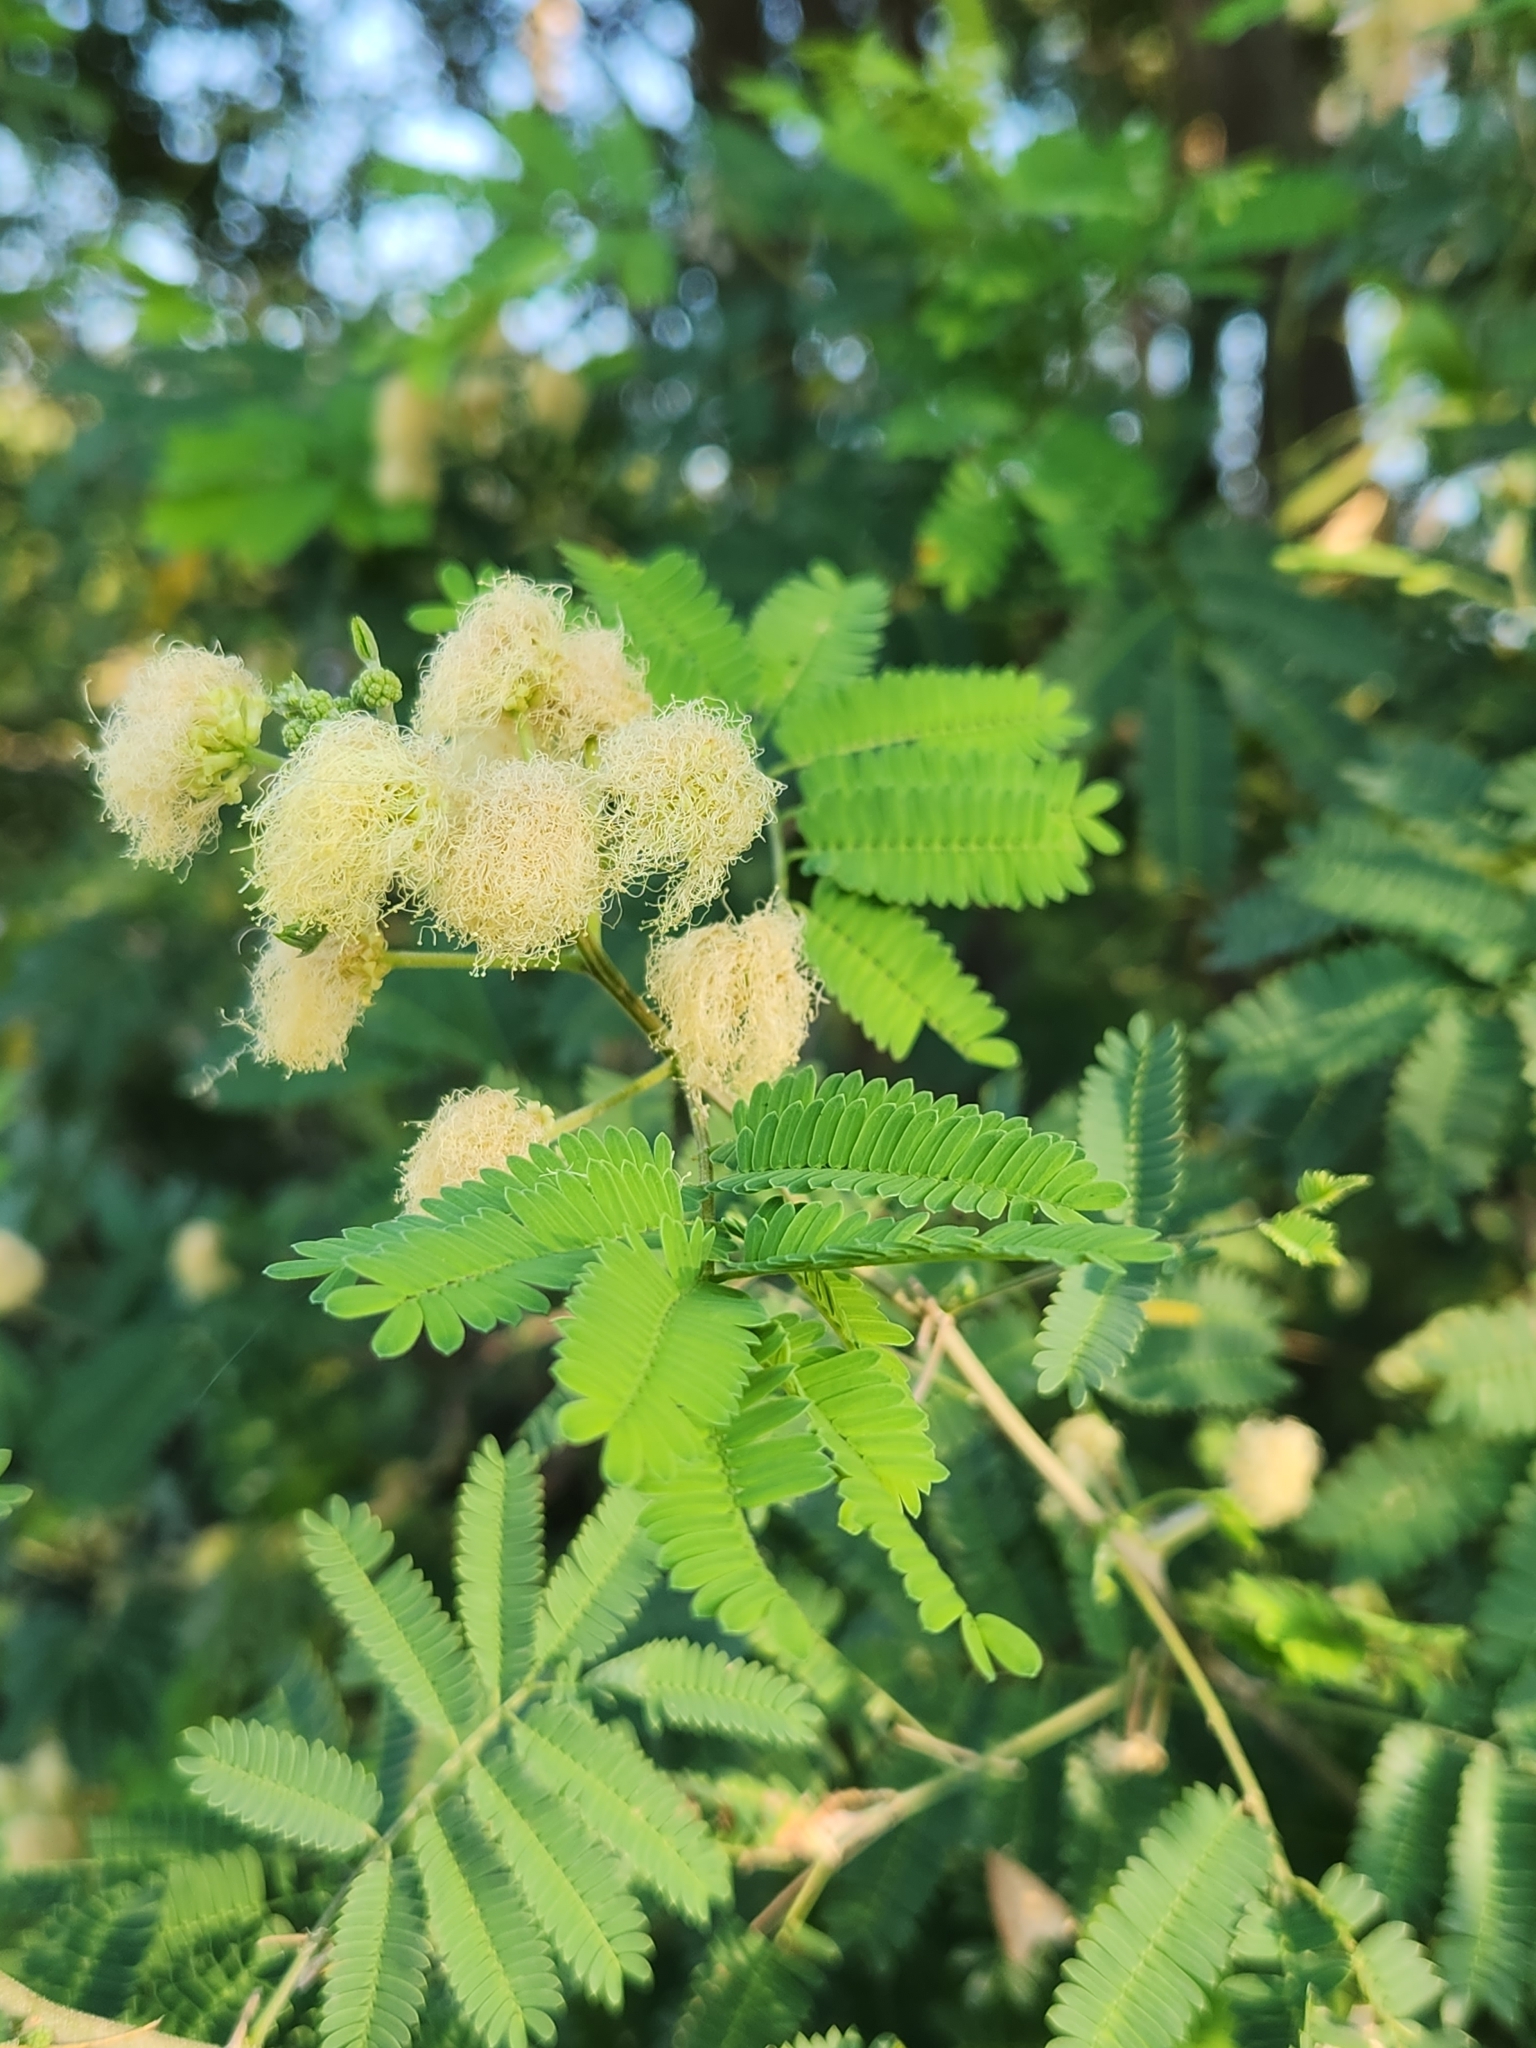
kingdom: Plantae
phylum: Tracheophyta
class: Magnoliopsida
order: Fabales
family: Fabaceae
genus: Havardia
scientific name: Havardia pallens
